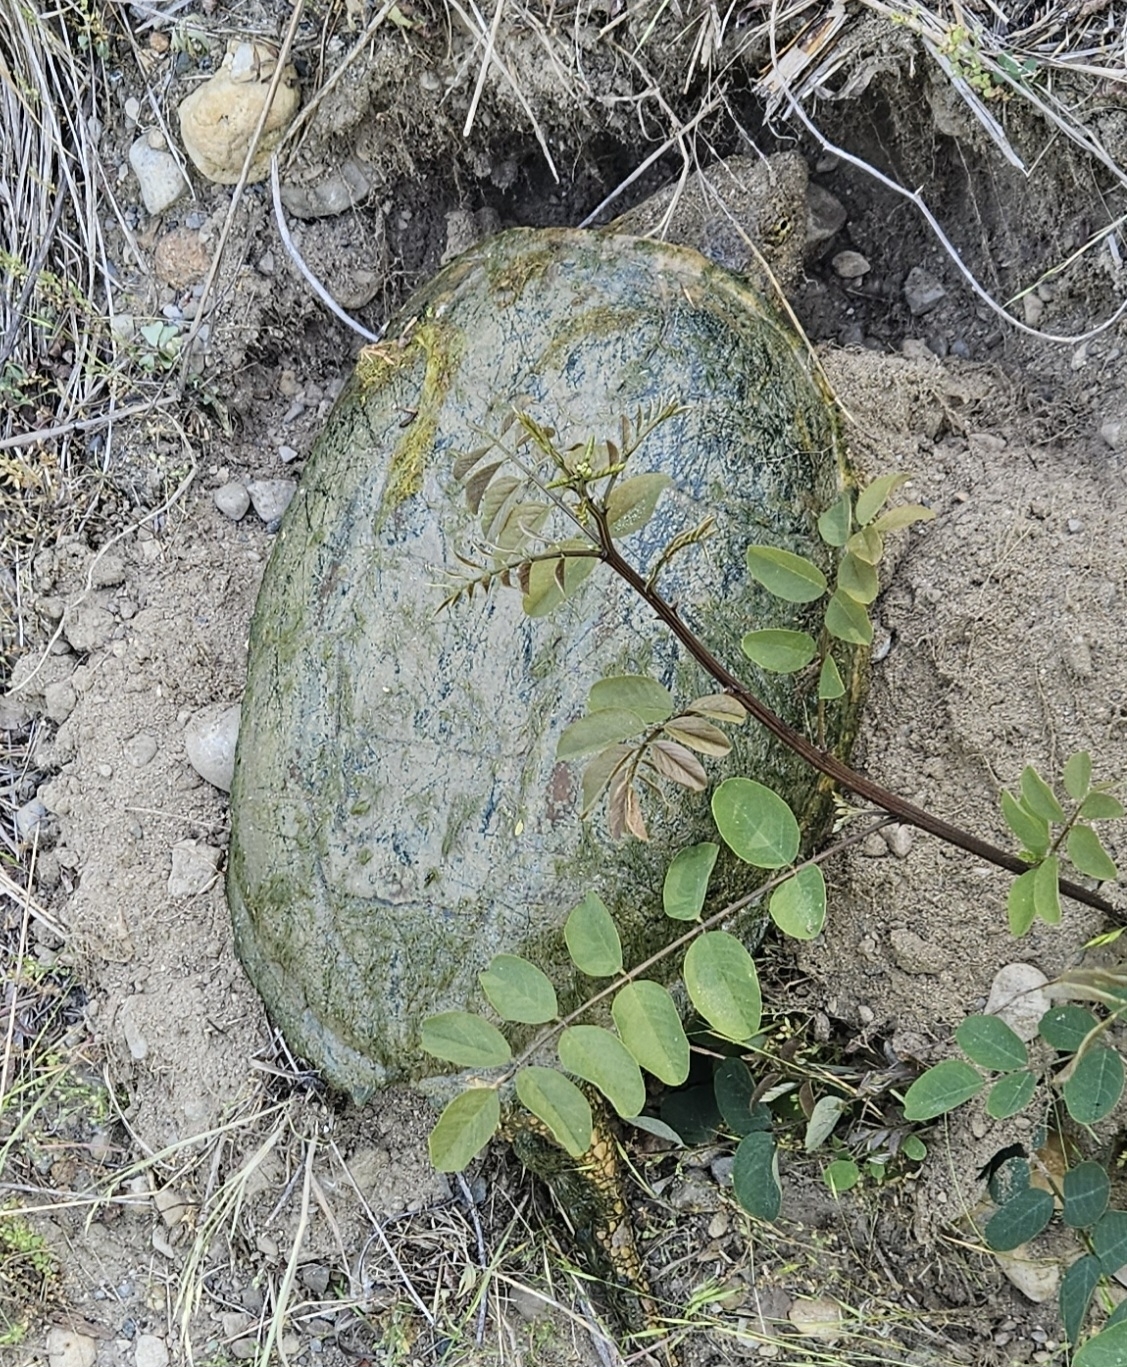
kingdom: Animalia
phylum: Chordata
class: Testudines
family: Chelydridae
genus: Chelydra
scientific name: Chelydra serpentina
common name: Common snapping turtle
